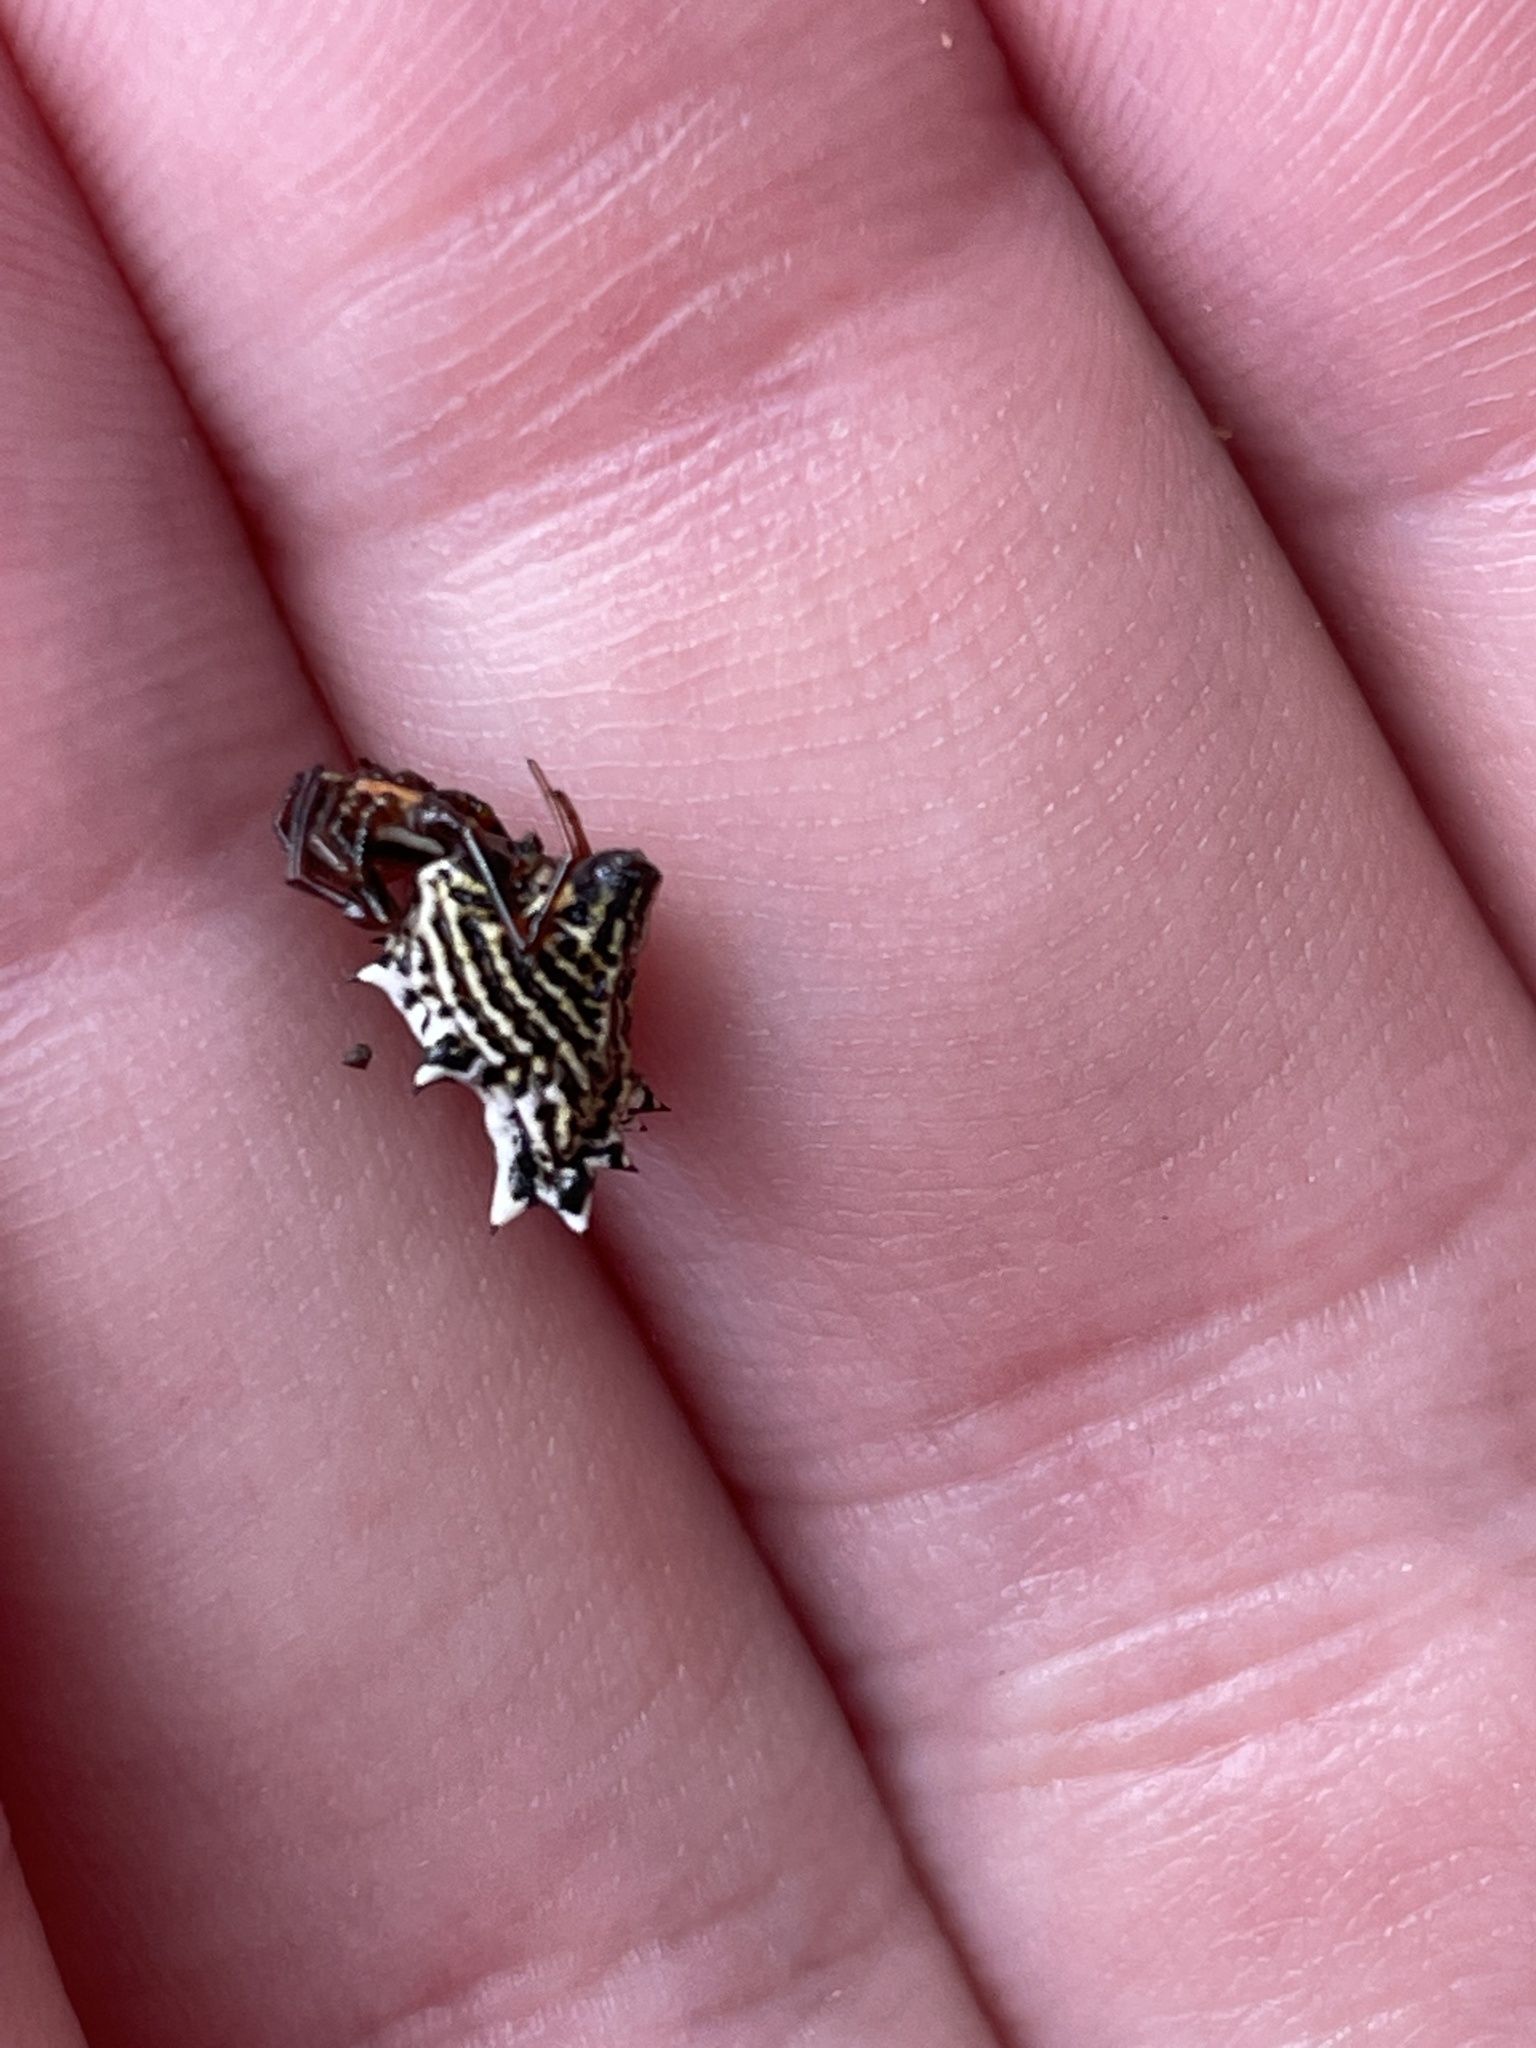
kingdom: Animalia
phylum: Arthropoda
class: Arachnida
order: Araneae
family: Araneidae
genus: Micrathena
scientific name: Micrathena gracilis
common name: Orb weavers
